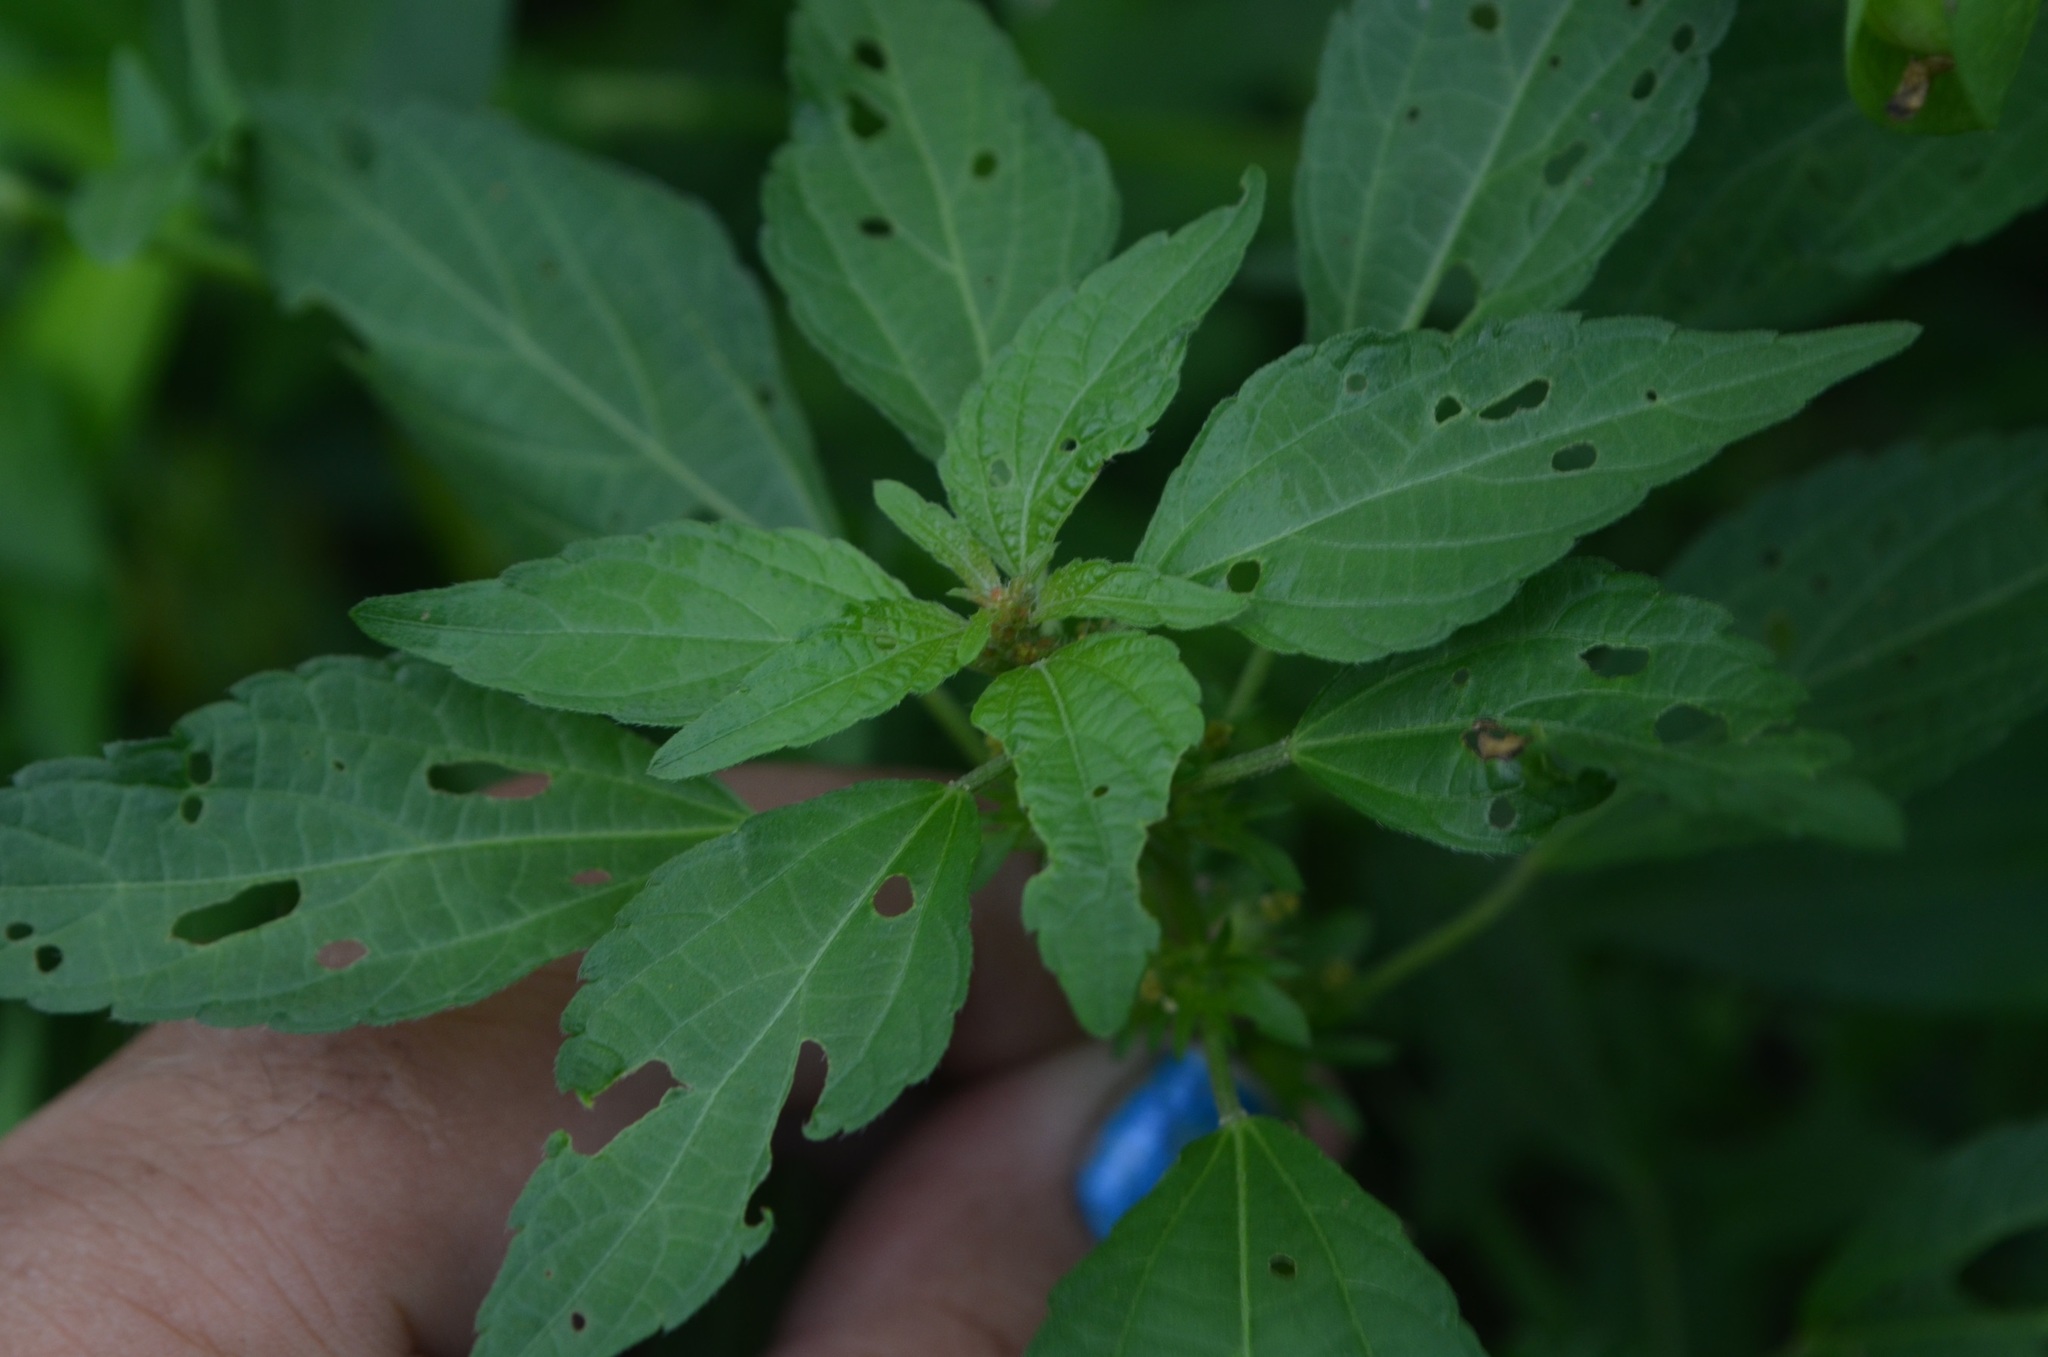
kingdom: Plantae
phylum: Tracheophyta
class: Magnoliopsida
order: Malpighiales
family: Euphorbiaceae
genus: Acalypha
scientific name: Acalypha rhomboidea
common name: Rhombic copperleaf
